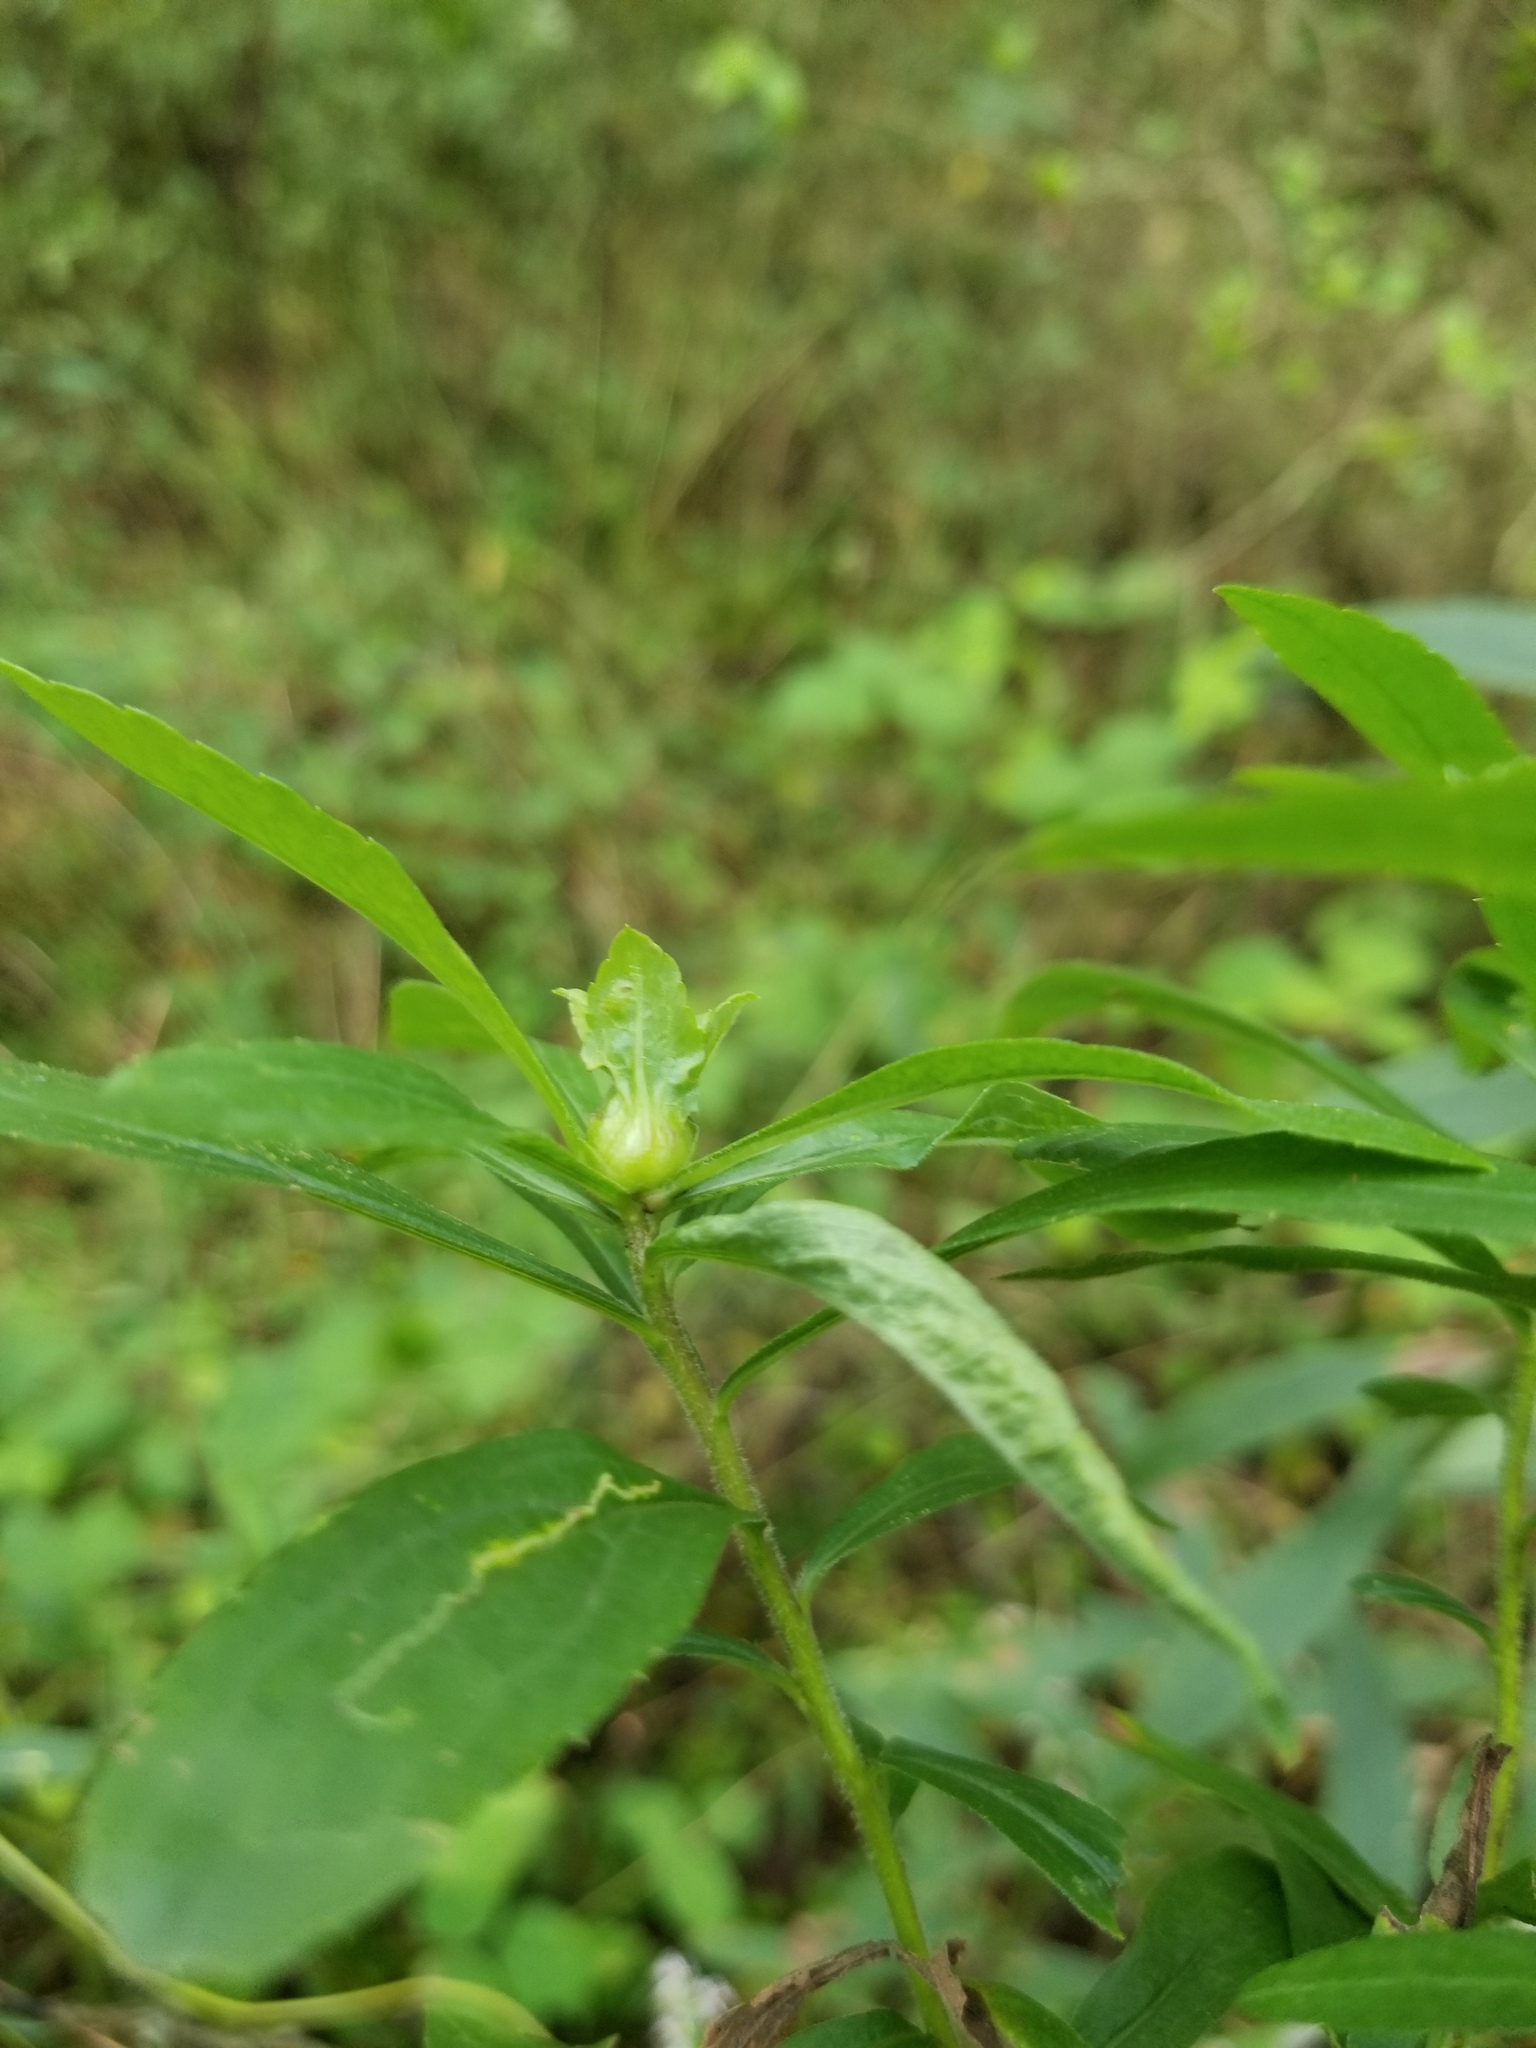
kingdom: Animalia
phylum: Arthropoda
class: Insecta
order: Diptera
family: Cecidomyiidae
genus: Dasineura
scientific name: Dasineura folliculi
